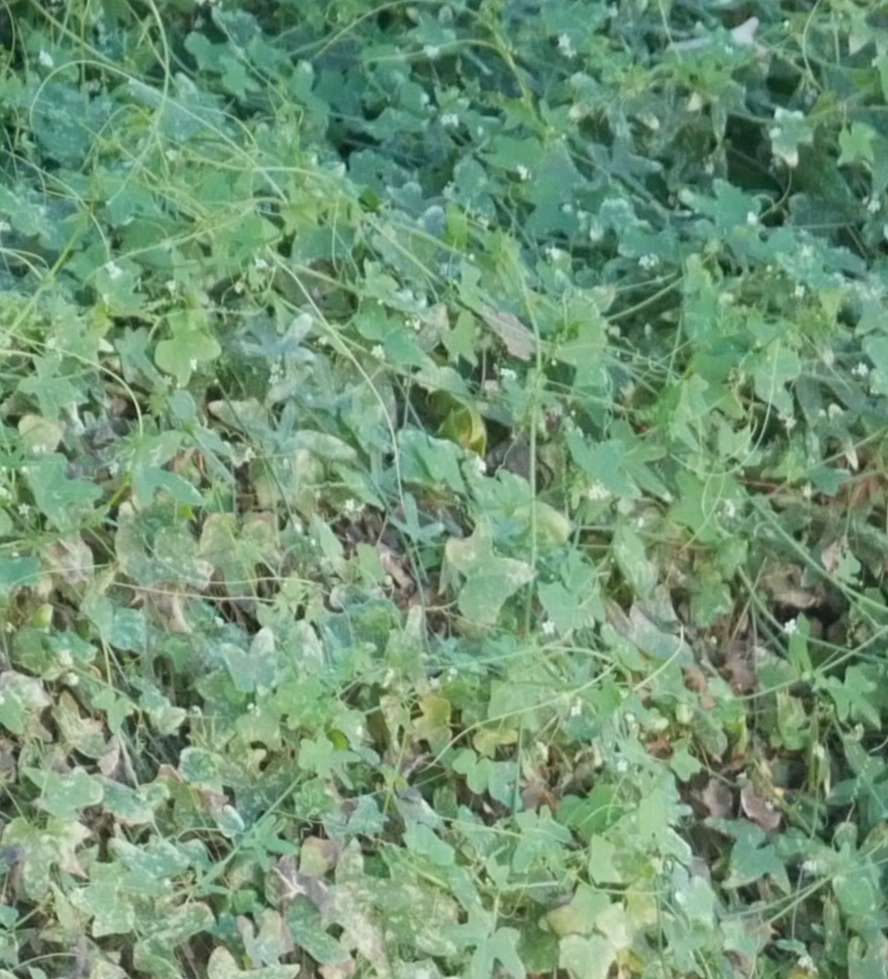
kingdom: Plantae
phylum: Tracheophyta
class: Magnoliopsida
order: Cucurbitales
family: Cucurbitaceae
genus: Echinopepon
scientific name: Echinopepon bigelovii
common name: Desert starvine
